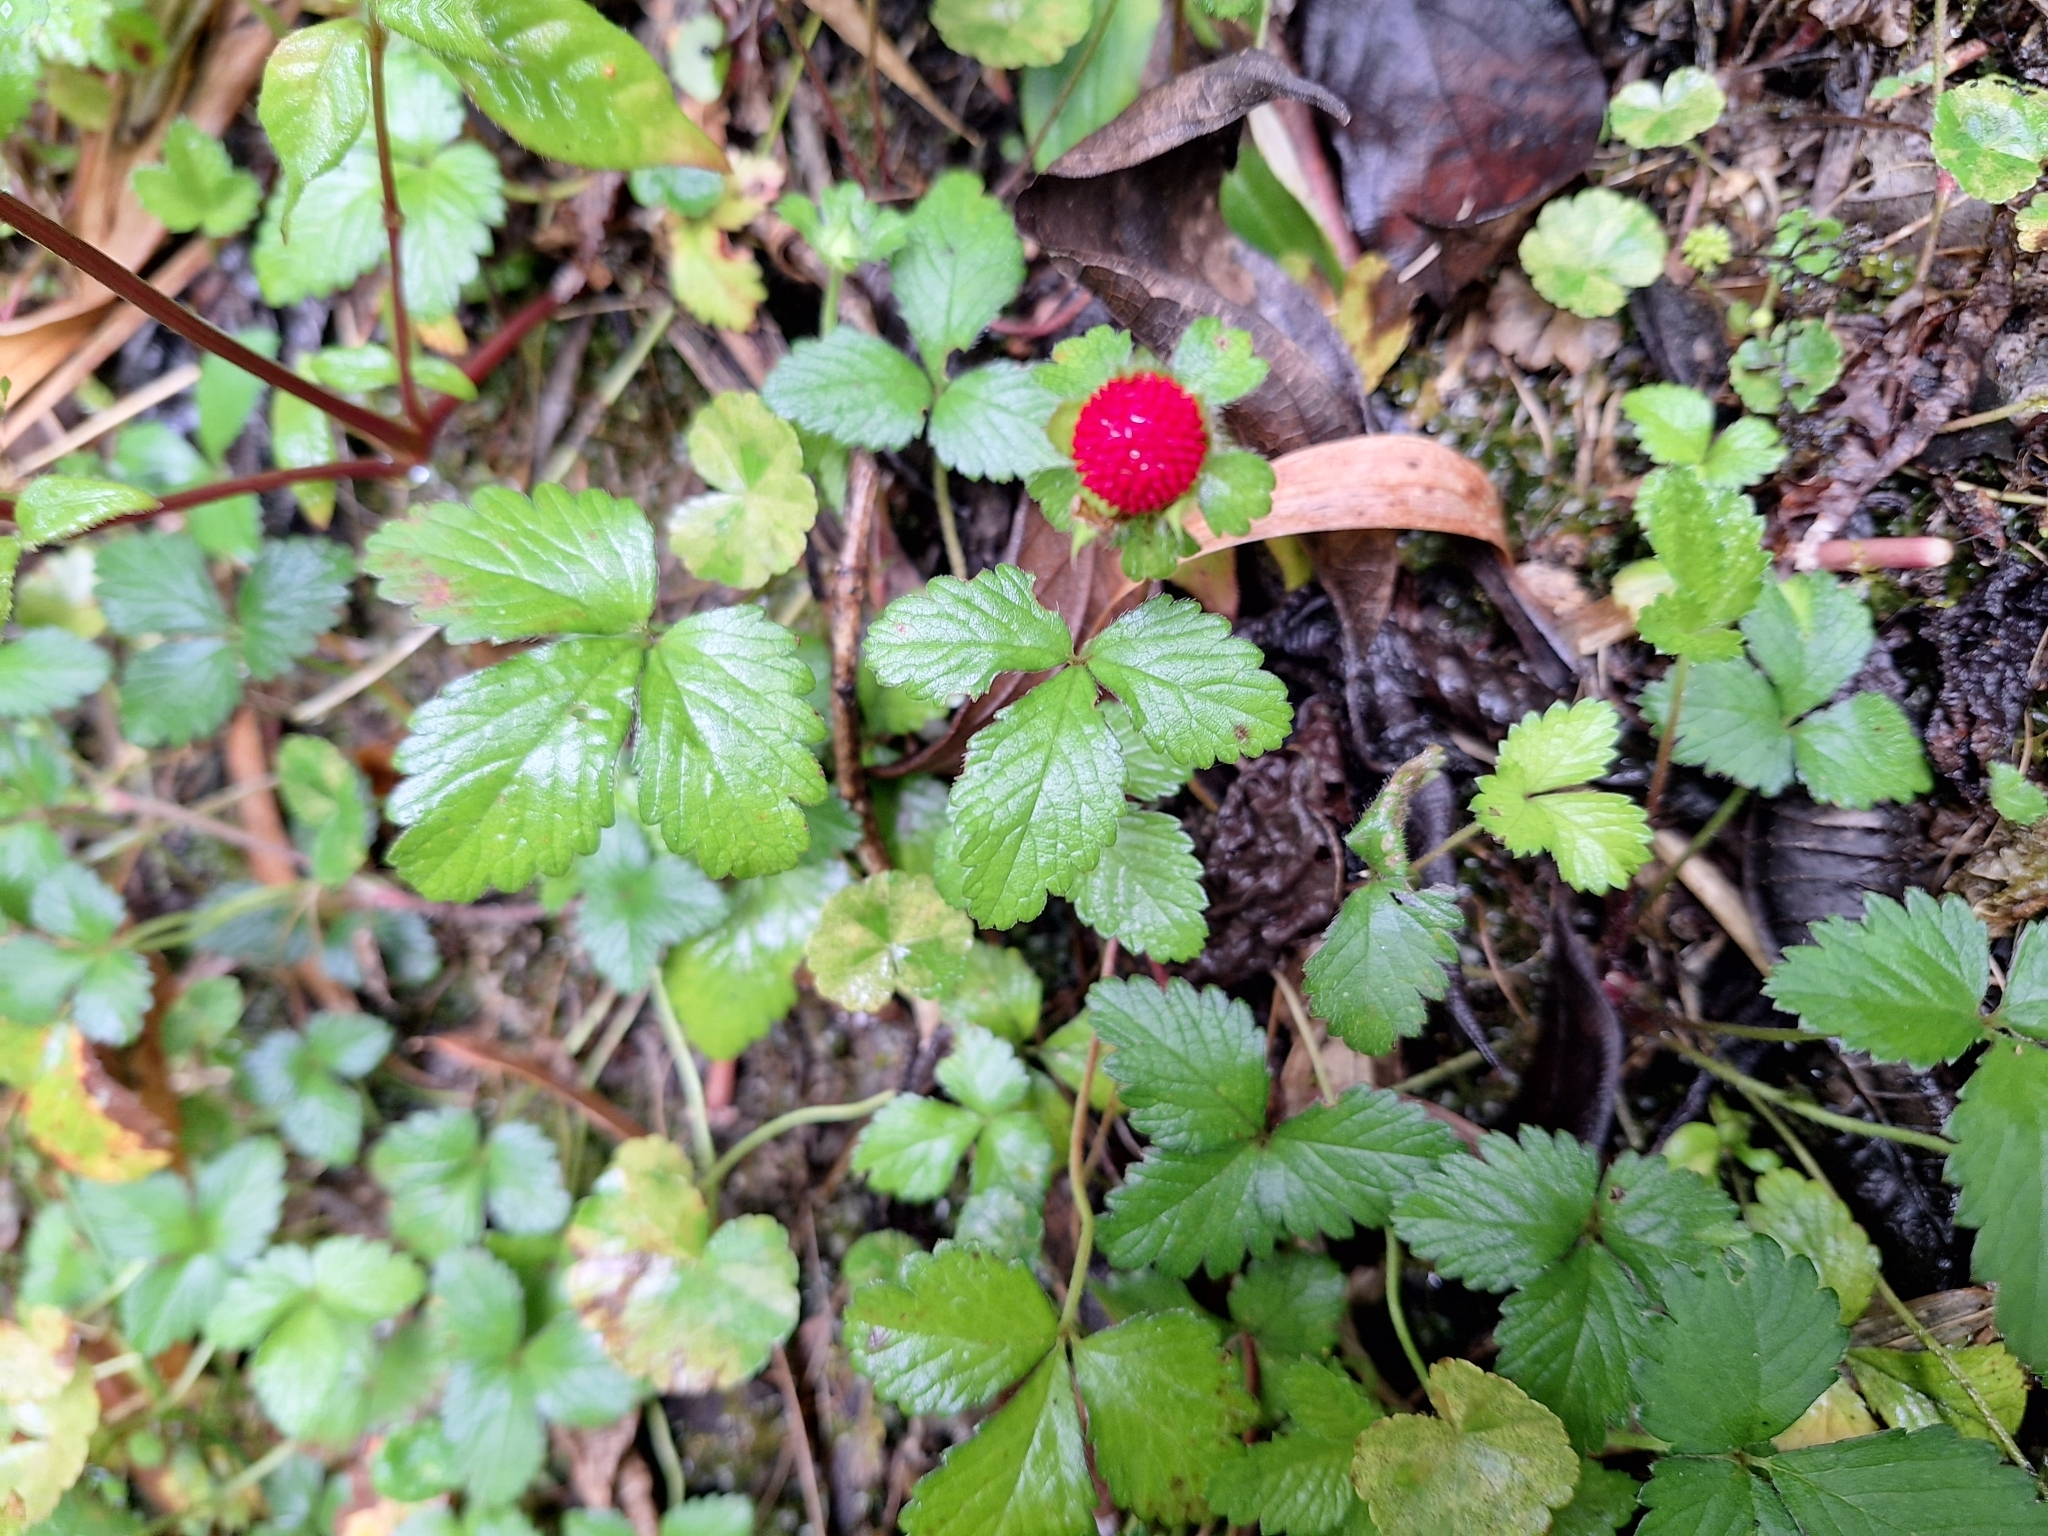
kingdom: Plantae
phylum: Tracheophyta
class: Magnoliopsida
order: Rosales
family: Rosaceae
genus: Potentilla
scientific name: Potentilla indica
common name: Yellow-flowered strawberry
